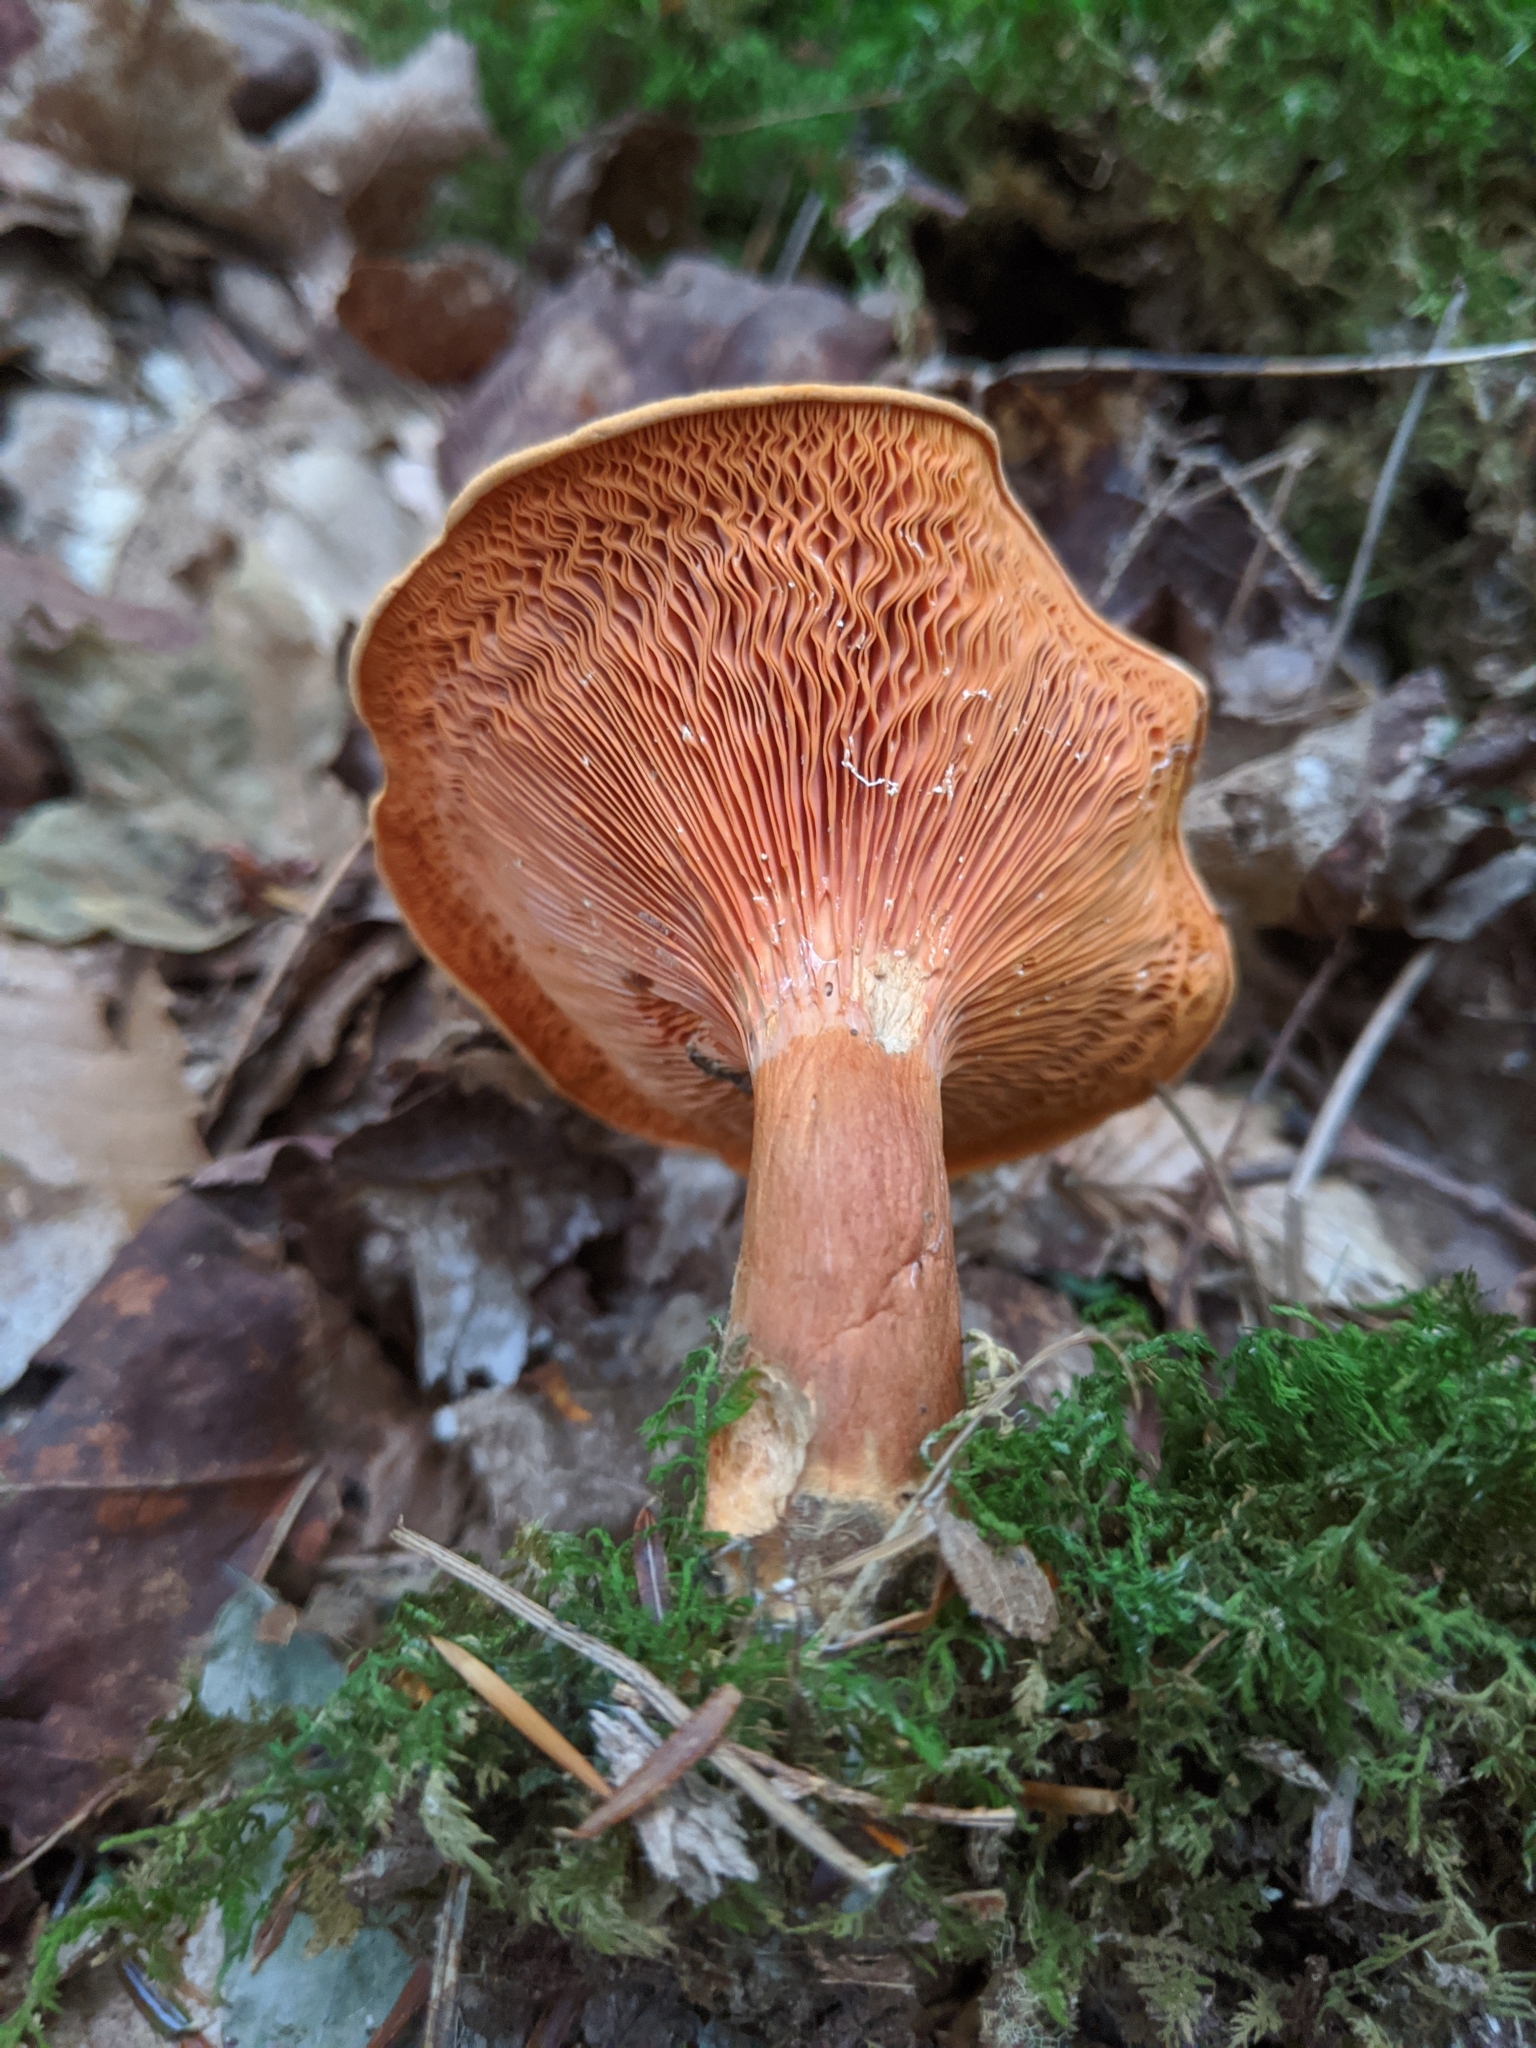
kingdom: Fungi
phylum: Basidiomycota
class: Agaricomycetes
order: Boletales
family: Hygrophoropsidaceae
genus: Hygrophoropsis
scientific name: Hygrophoropsis aurantiaca
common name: False chanterelle
